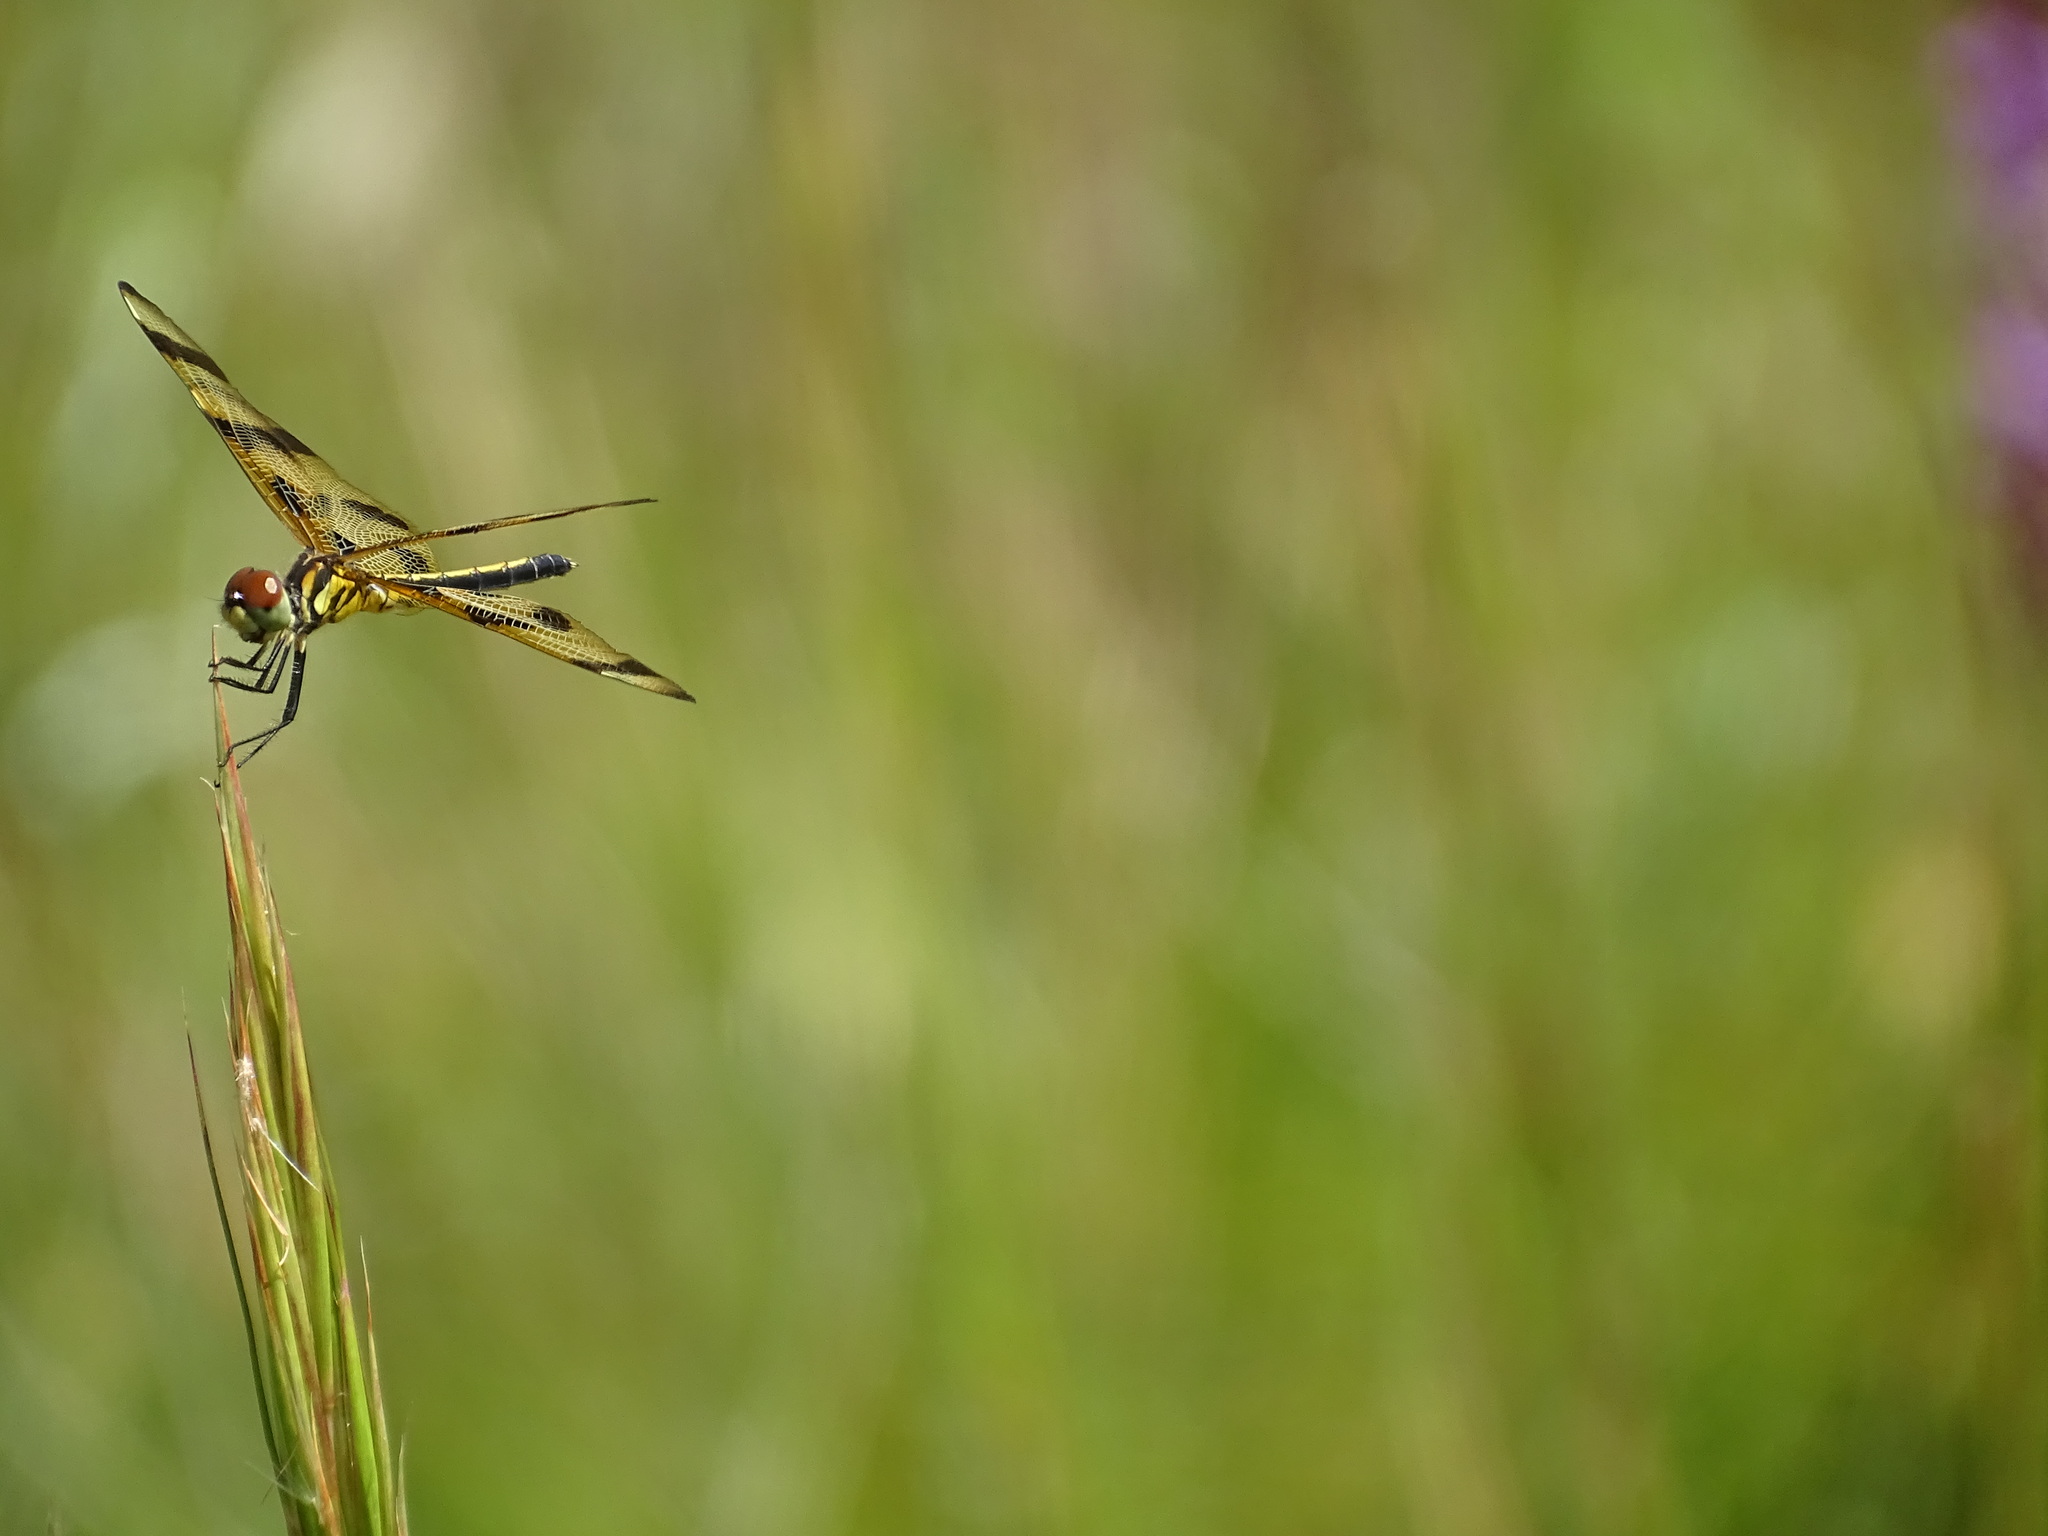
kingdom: Animalia
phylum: Arthropoda
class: Insecta
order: Odonata
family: Libellulidae
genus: Celithemis
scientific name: Celithemis eponina
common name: Halloween pennant
